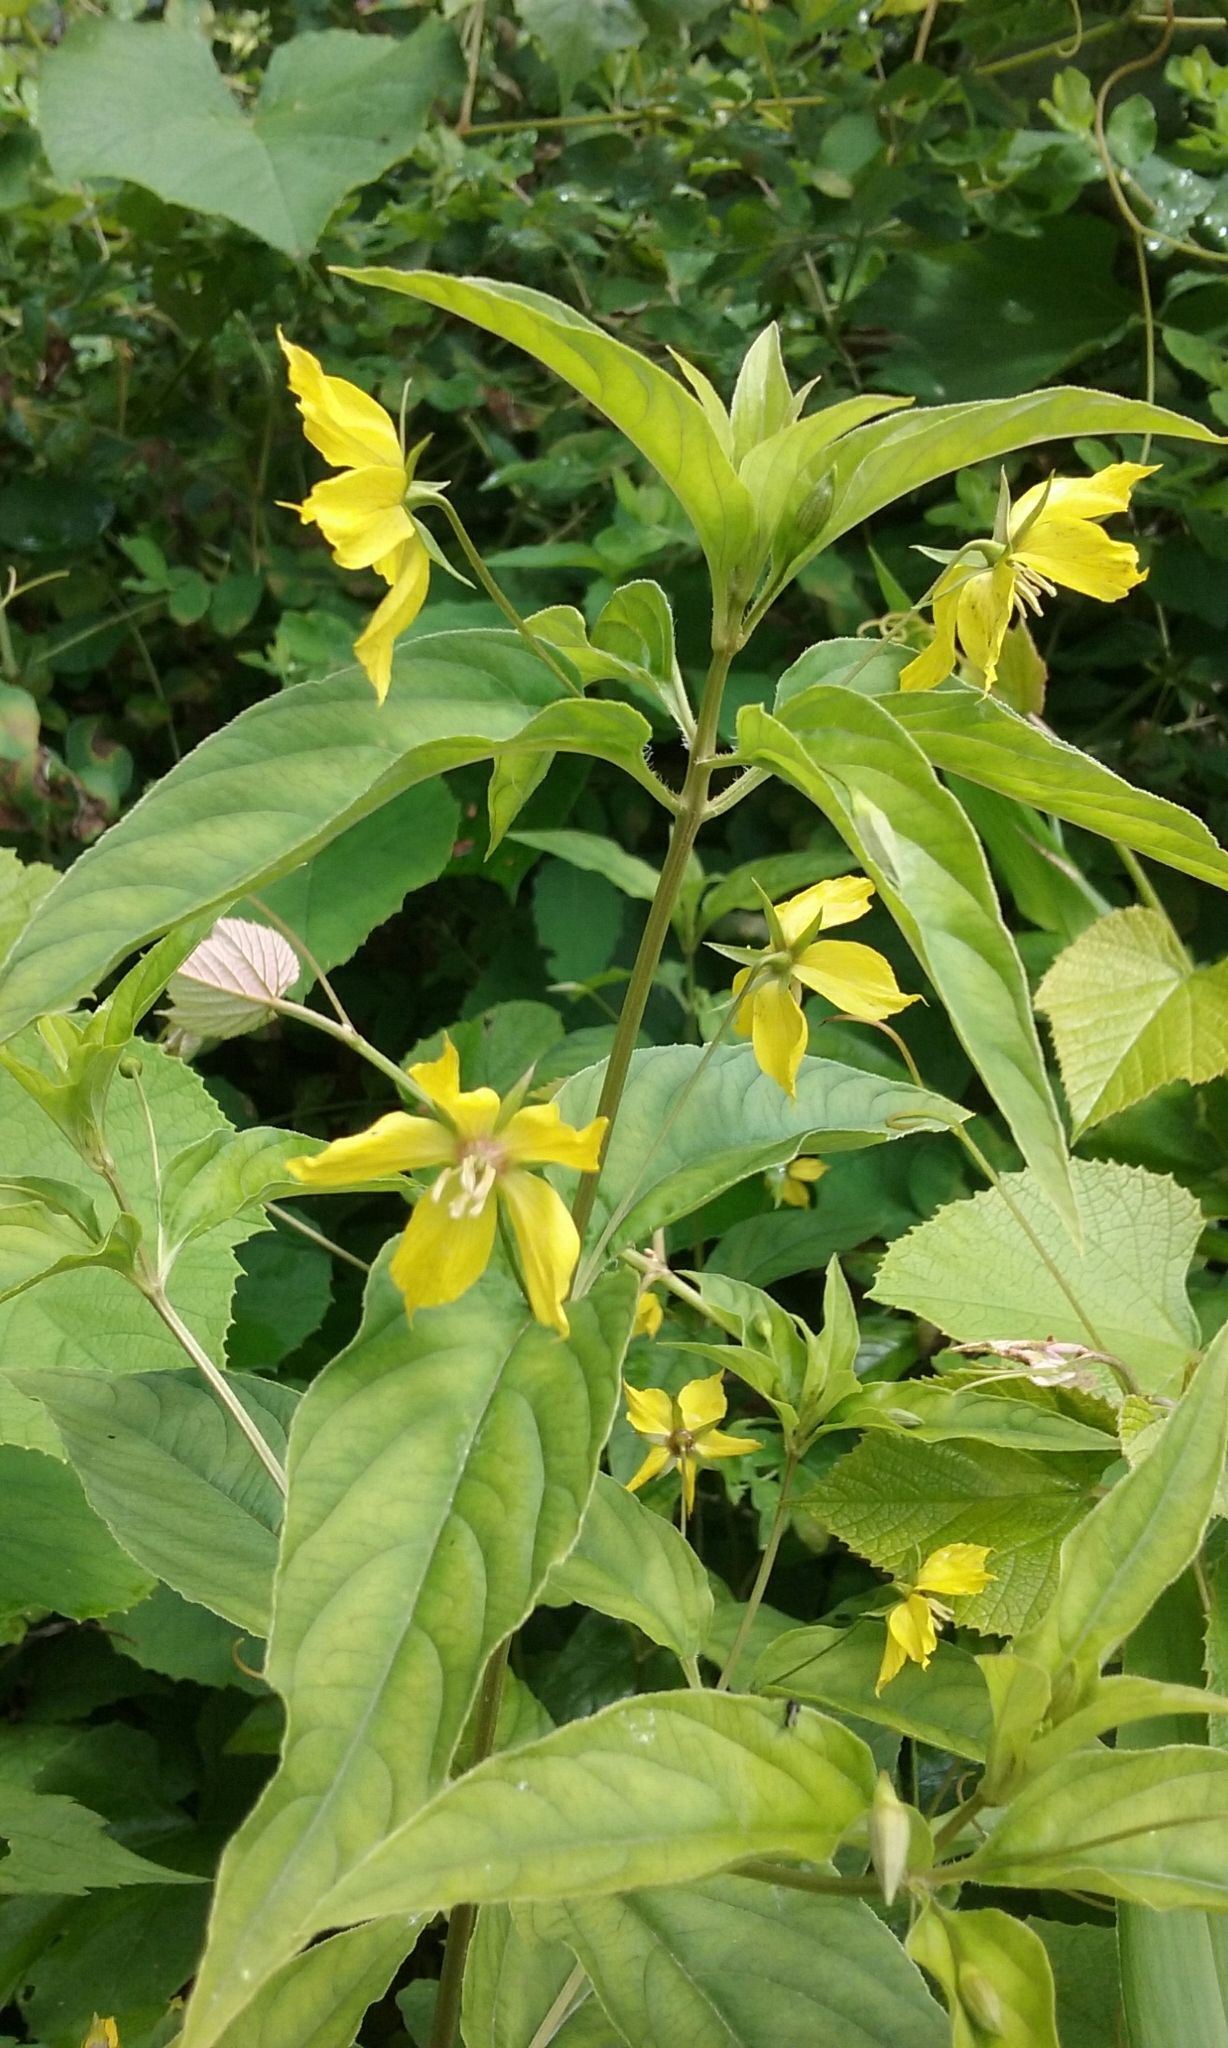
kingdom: Plantae
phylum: Tracheophyta
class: Magnoliopsida
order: Ericales
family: Primulaceae
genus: Lysimachia
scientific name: Lysimachia ciliata
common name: Fringed loosestrife
